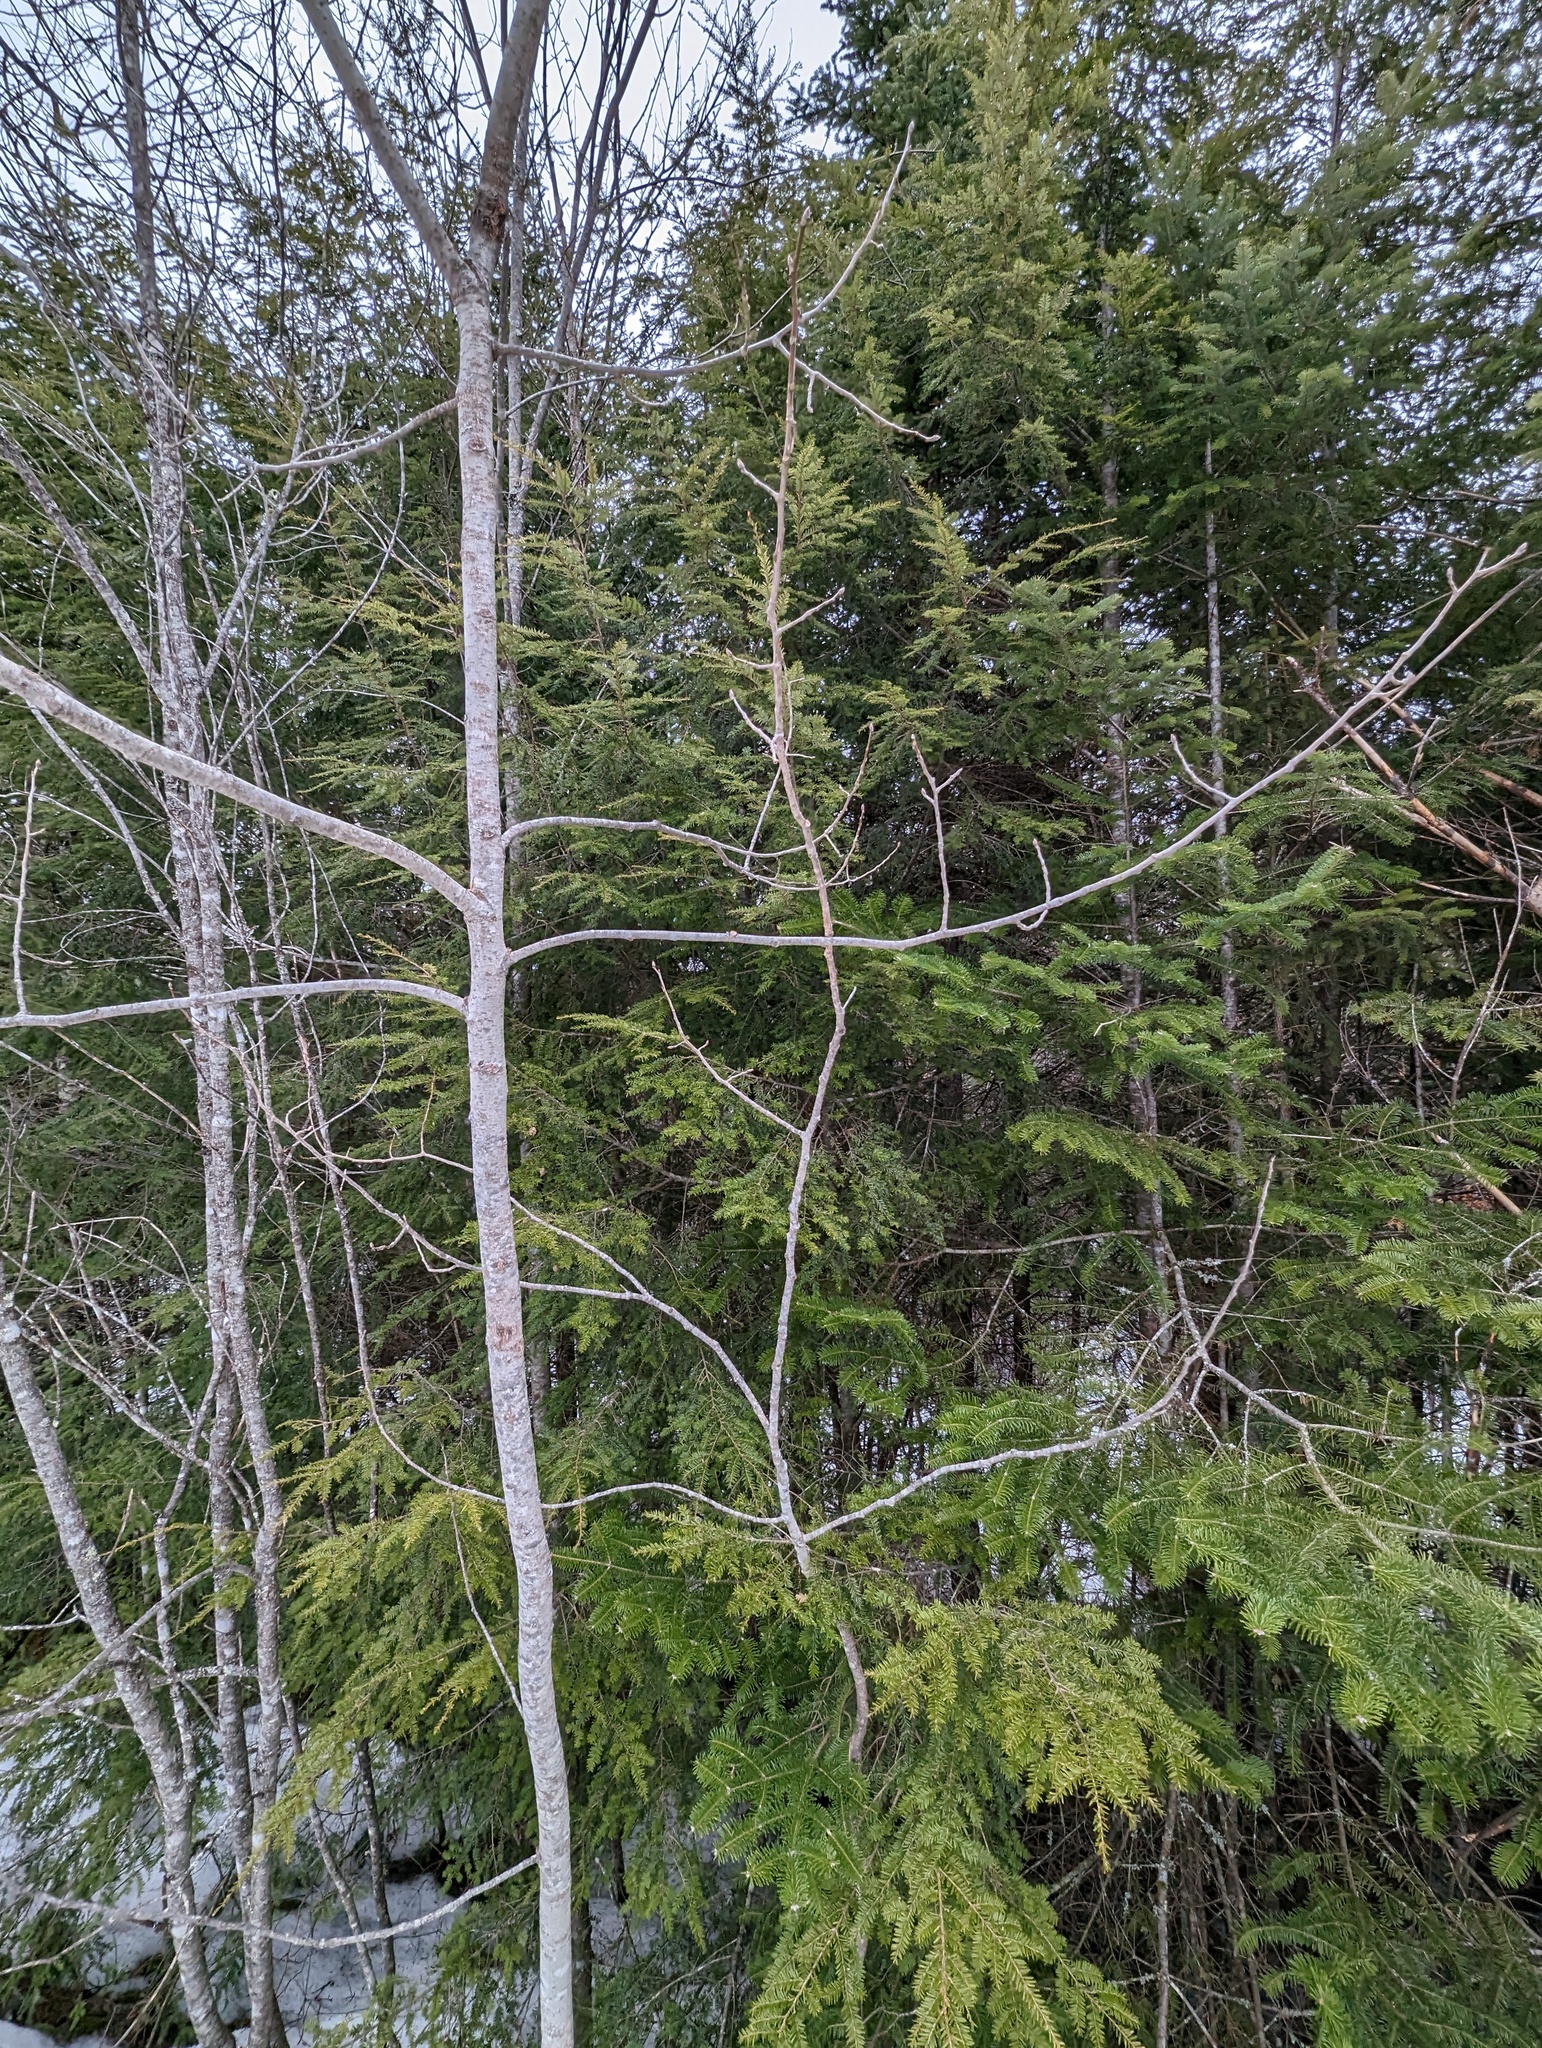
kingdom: Plantae
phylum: Tracheophyta
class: Pinopsida
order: Pinales
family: Pinaceae
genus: Tsuga
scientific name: Tsuga canadensis
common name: Eastern hemlock
